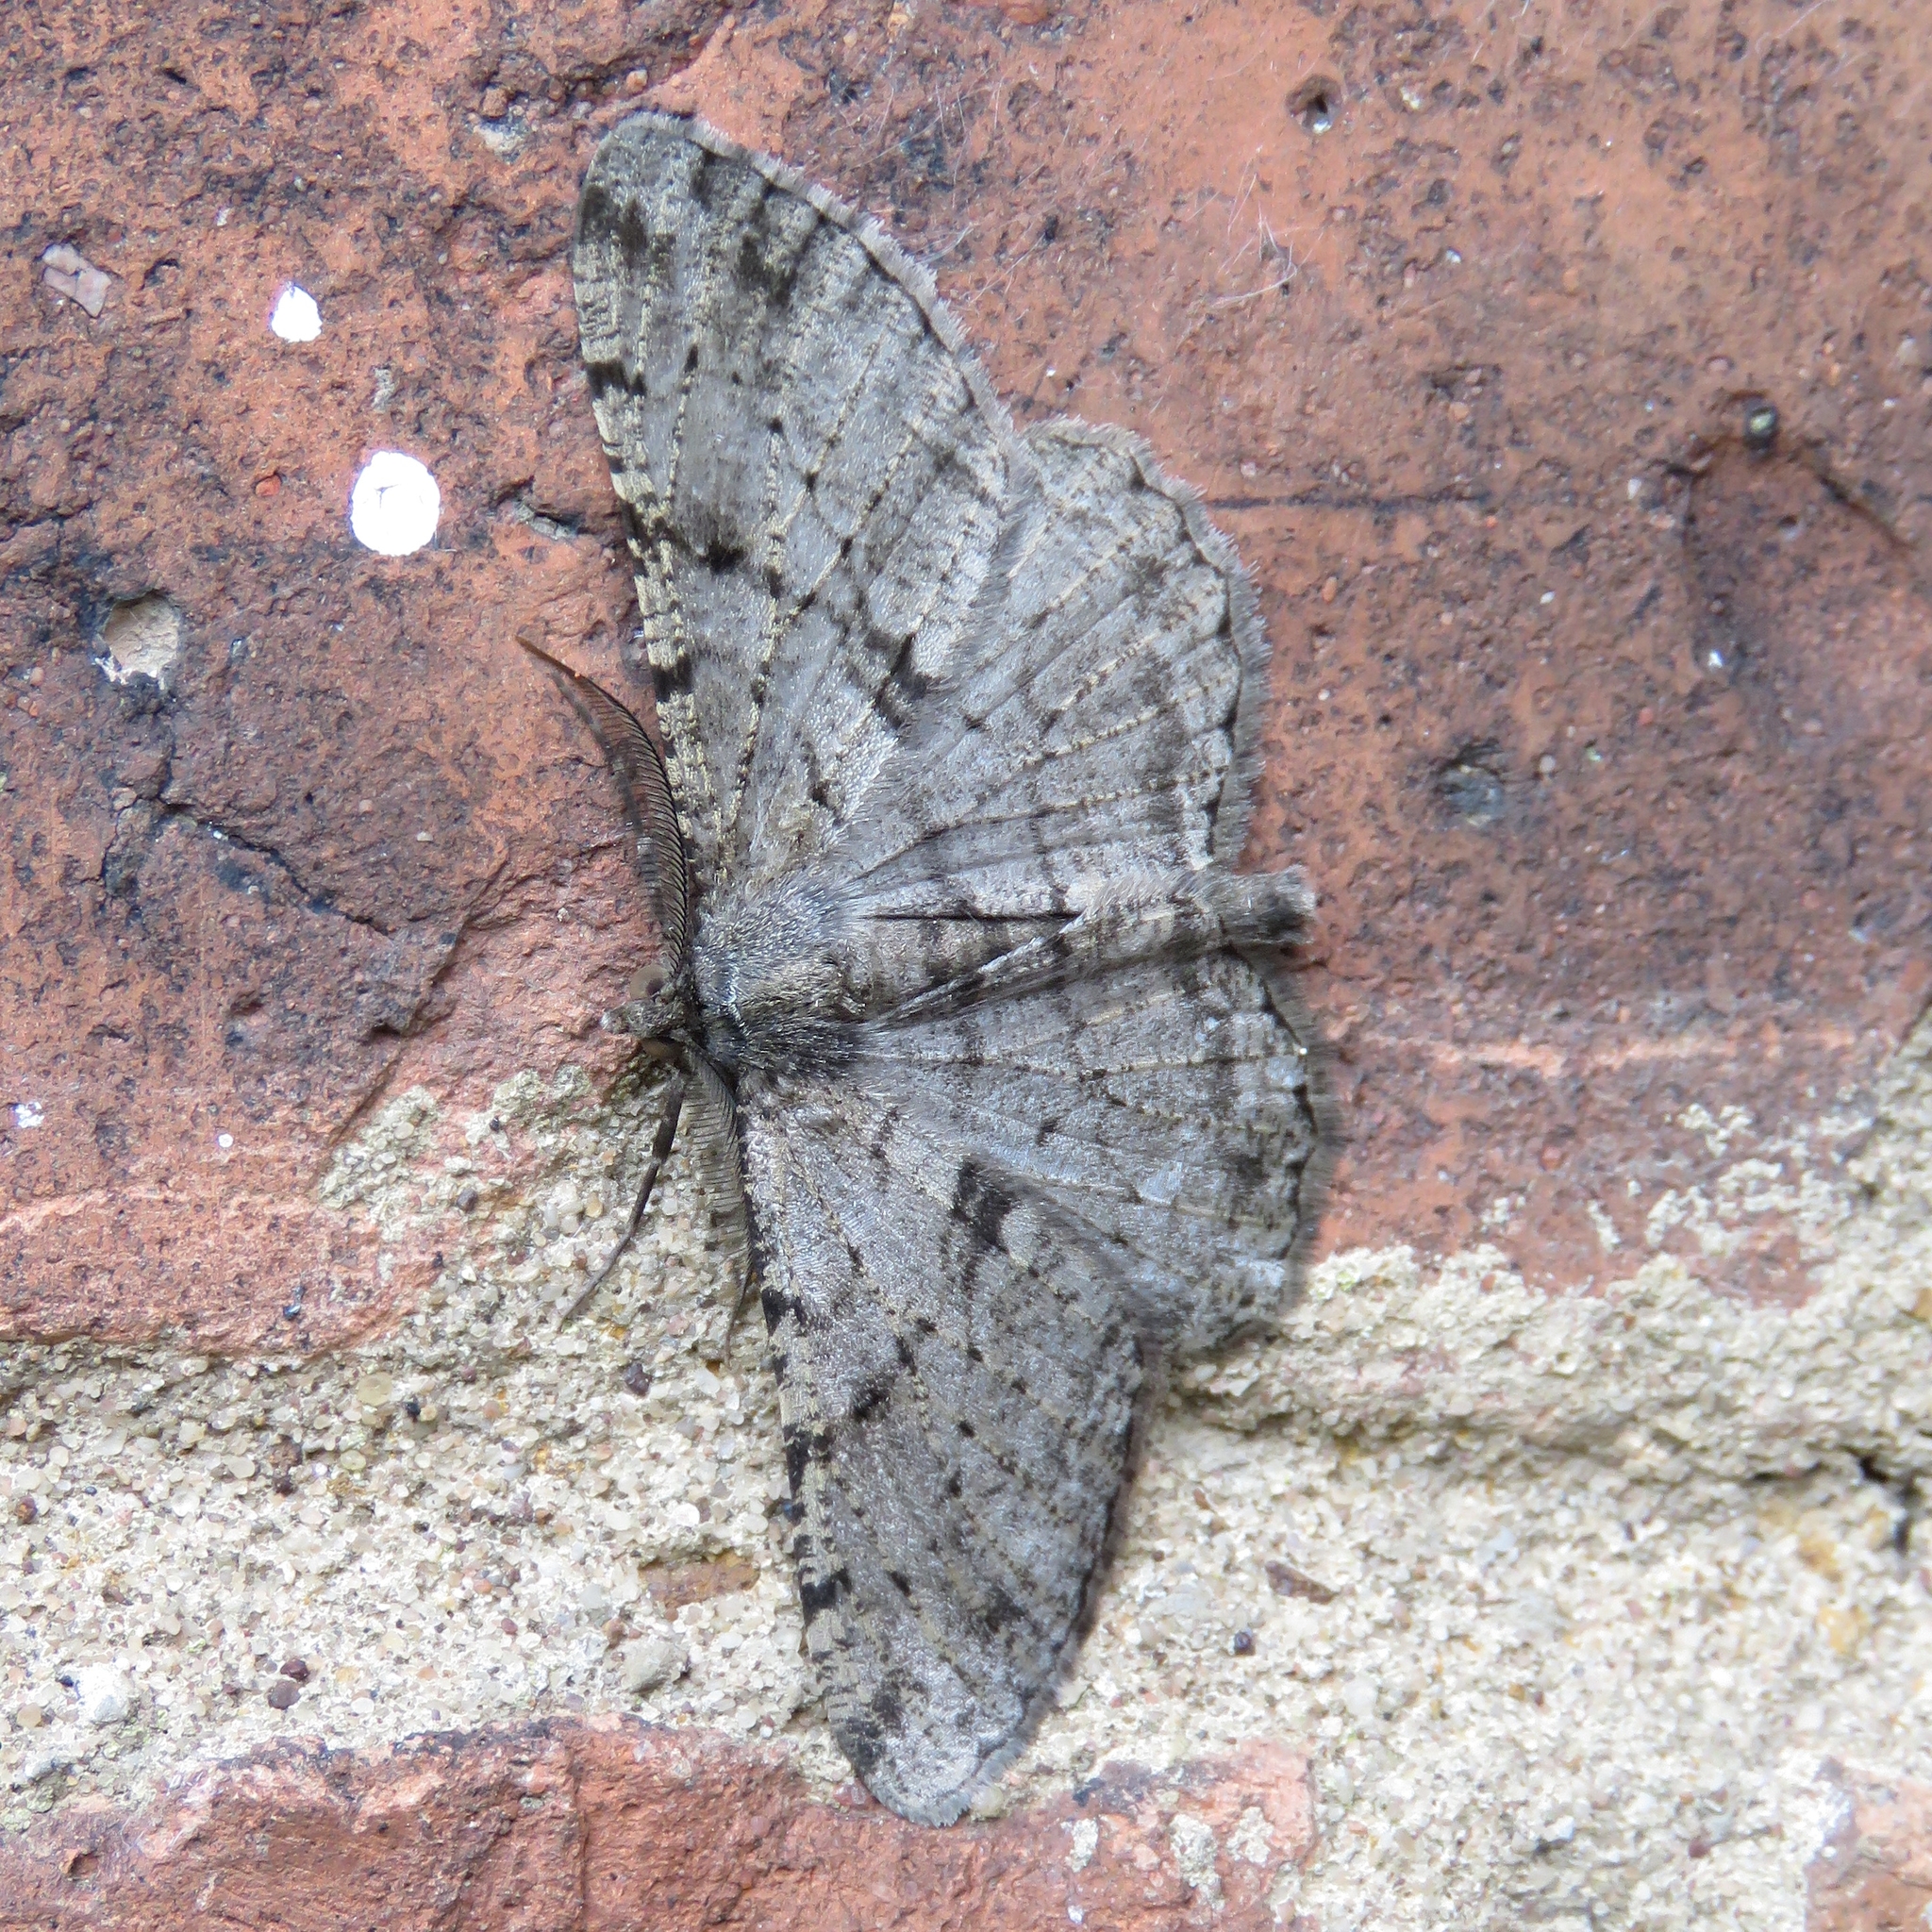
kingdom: Animalia
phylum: Arthropoda
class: Insecta
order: Lepidoptera
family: Geometridae
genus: Peribatodes
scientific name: Peribatodes rhomboidaria
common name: Willow beauty
